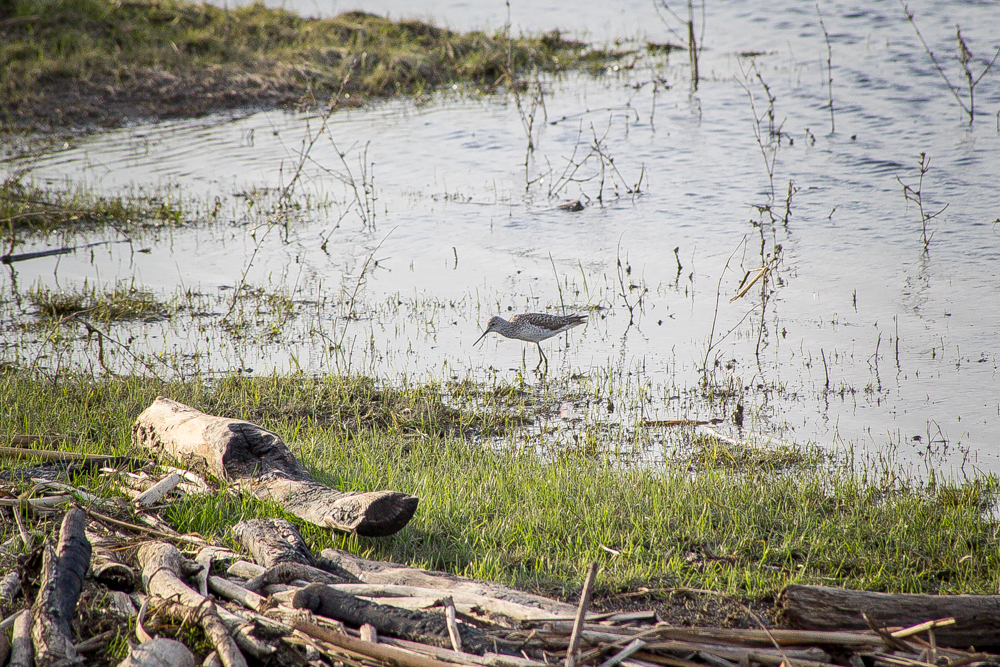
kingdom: Animalia
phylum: Chordata
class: Aves
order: Charadriiformes
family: Scolopacidae
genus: Tringa
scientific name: Tringa stagnatilis
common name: Marsh sandpiper
